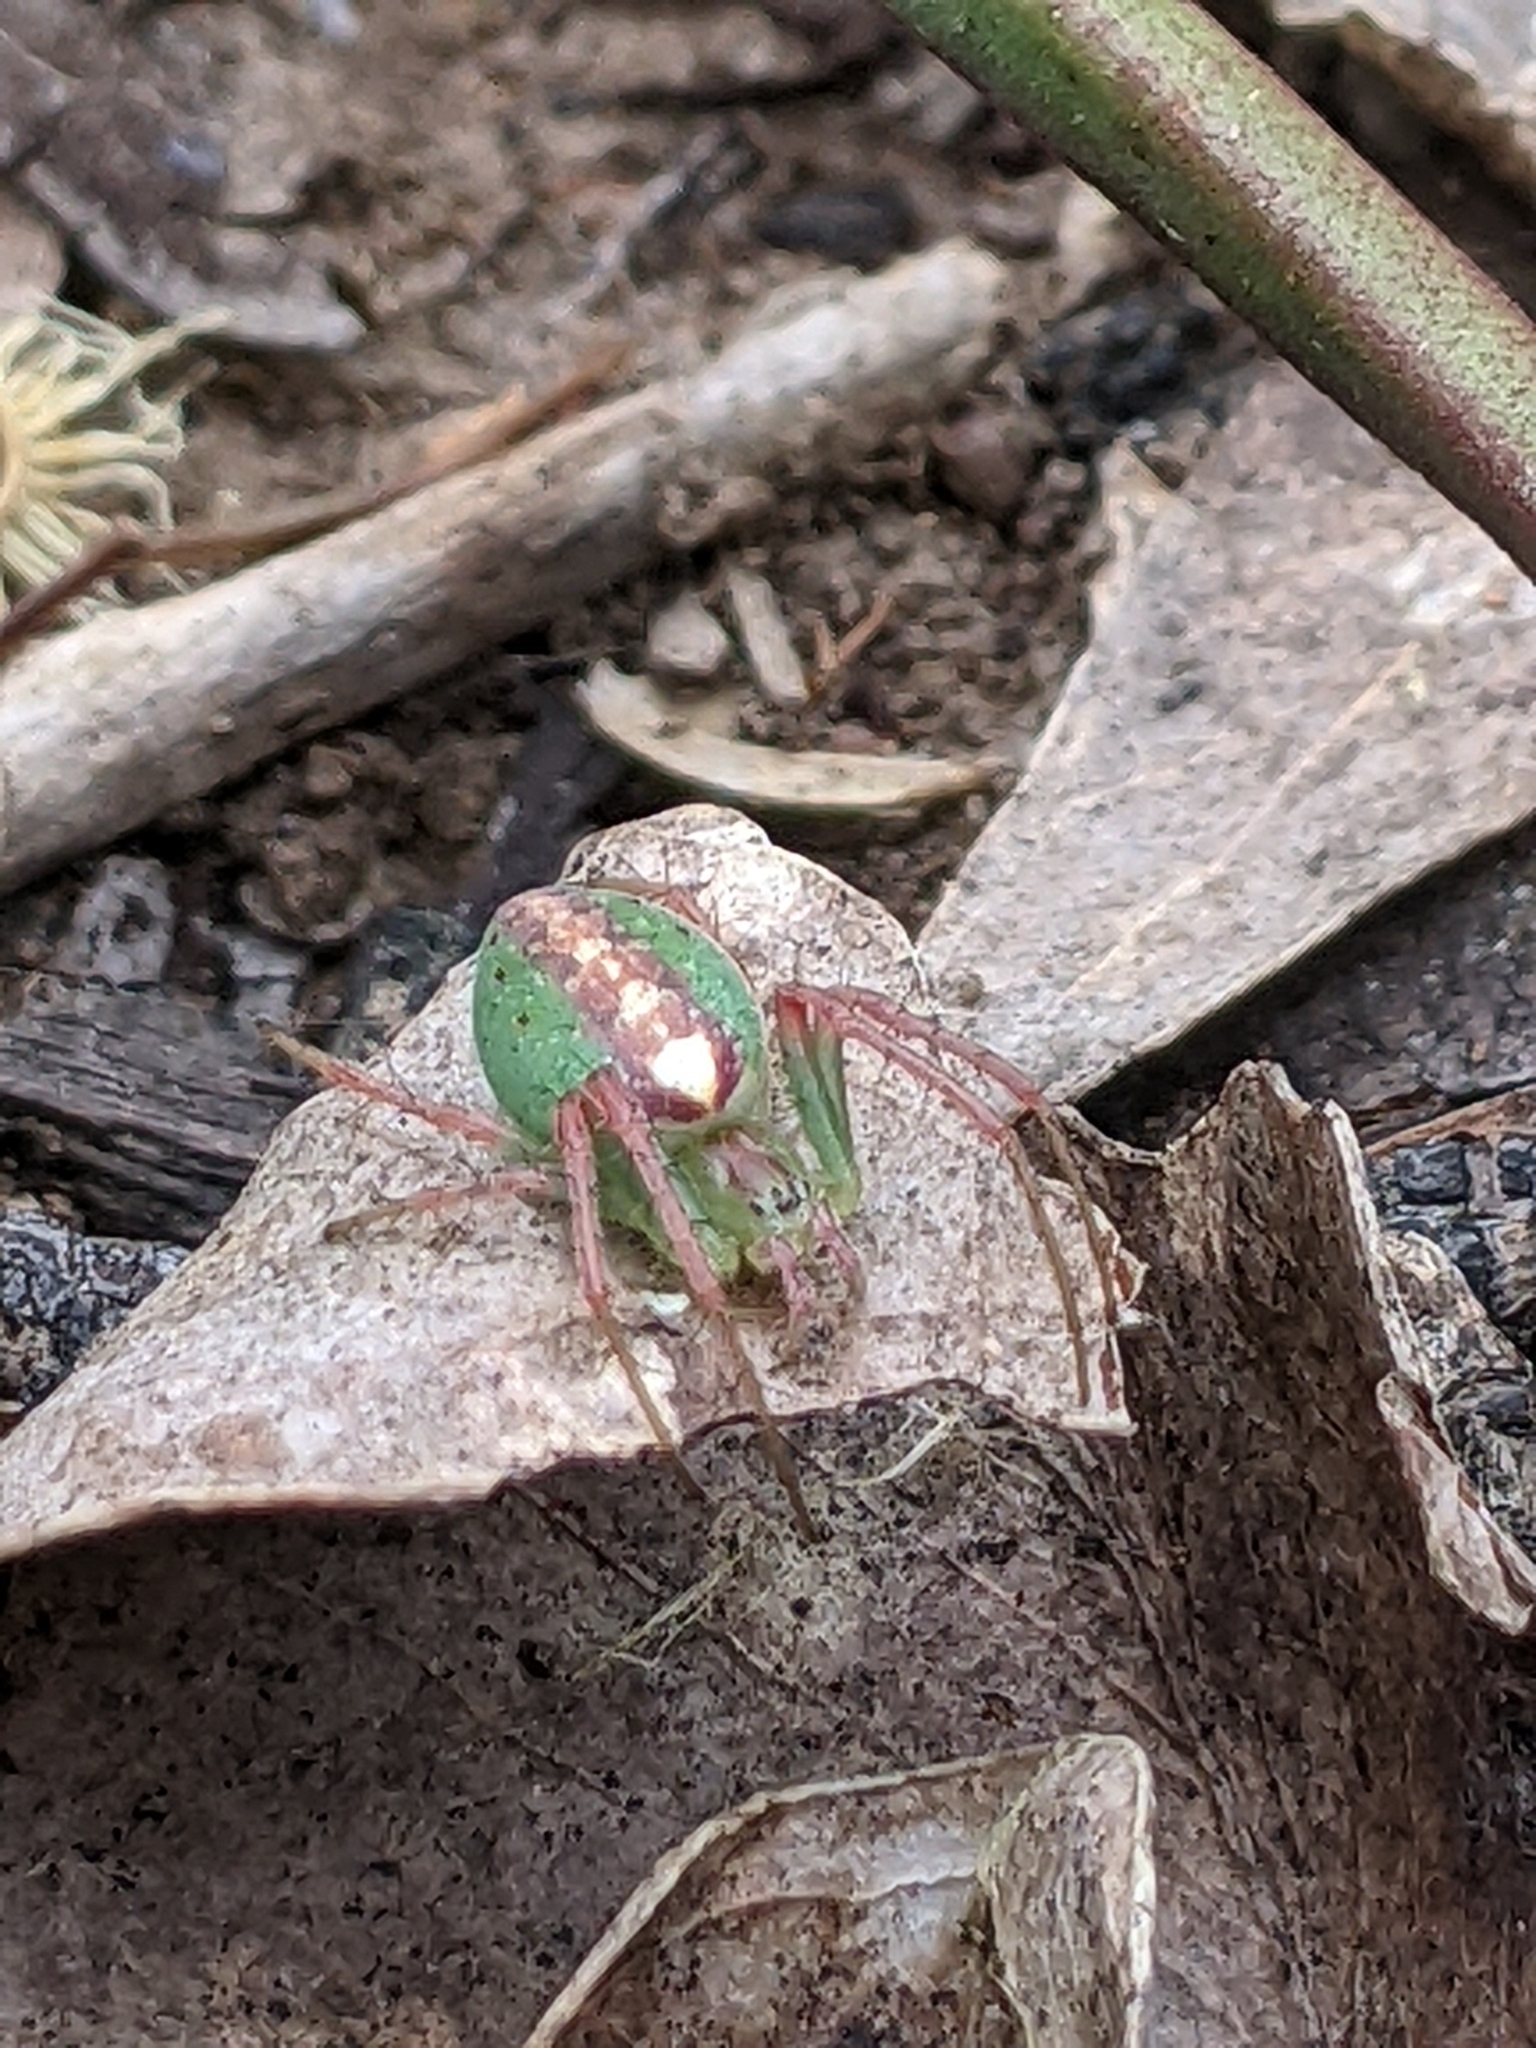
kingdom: Animalia
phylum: Arthropoda
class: Arachnida
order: Araneae
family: Araneidae
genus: Araneus
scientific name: Araneus talipedatus
